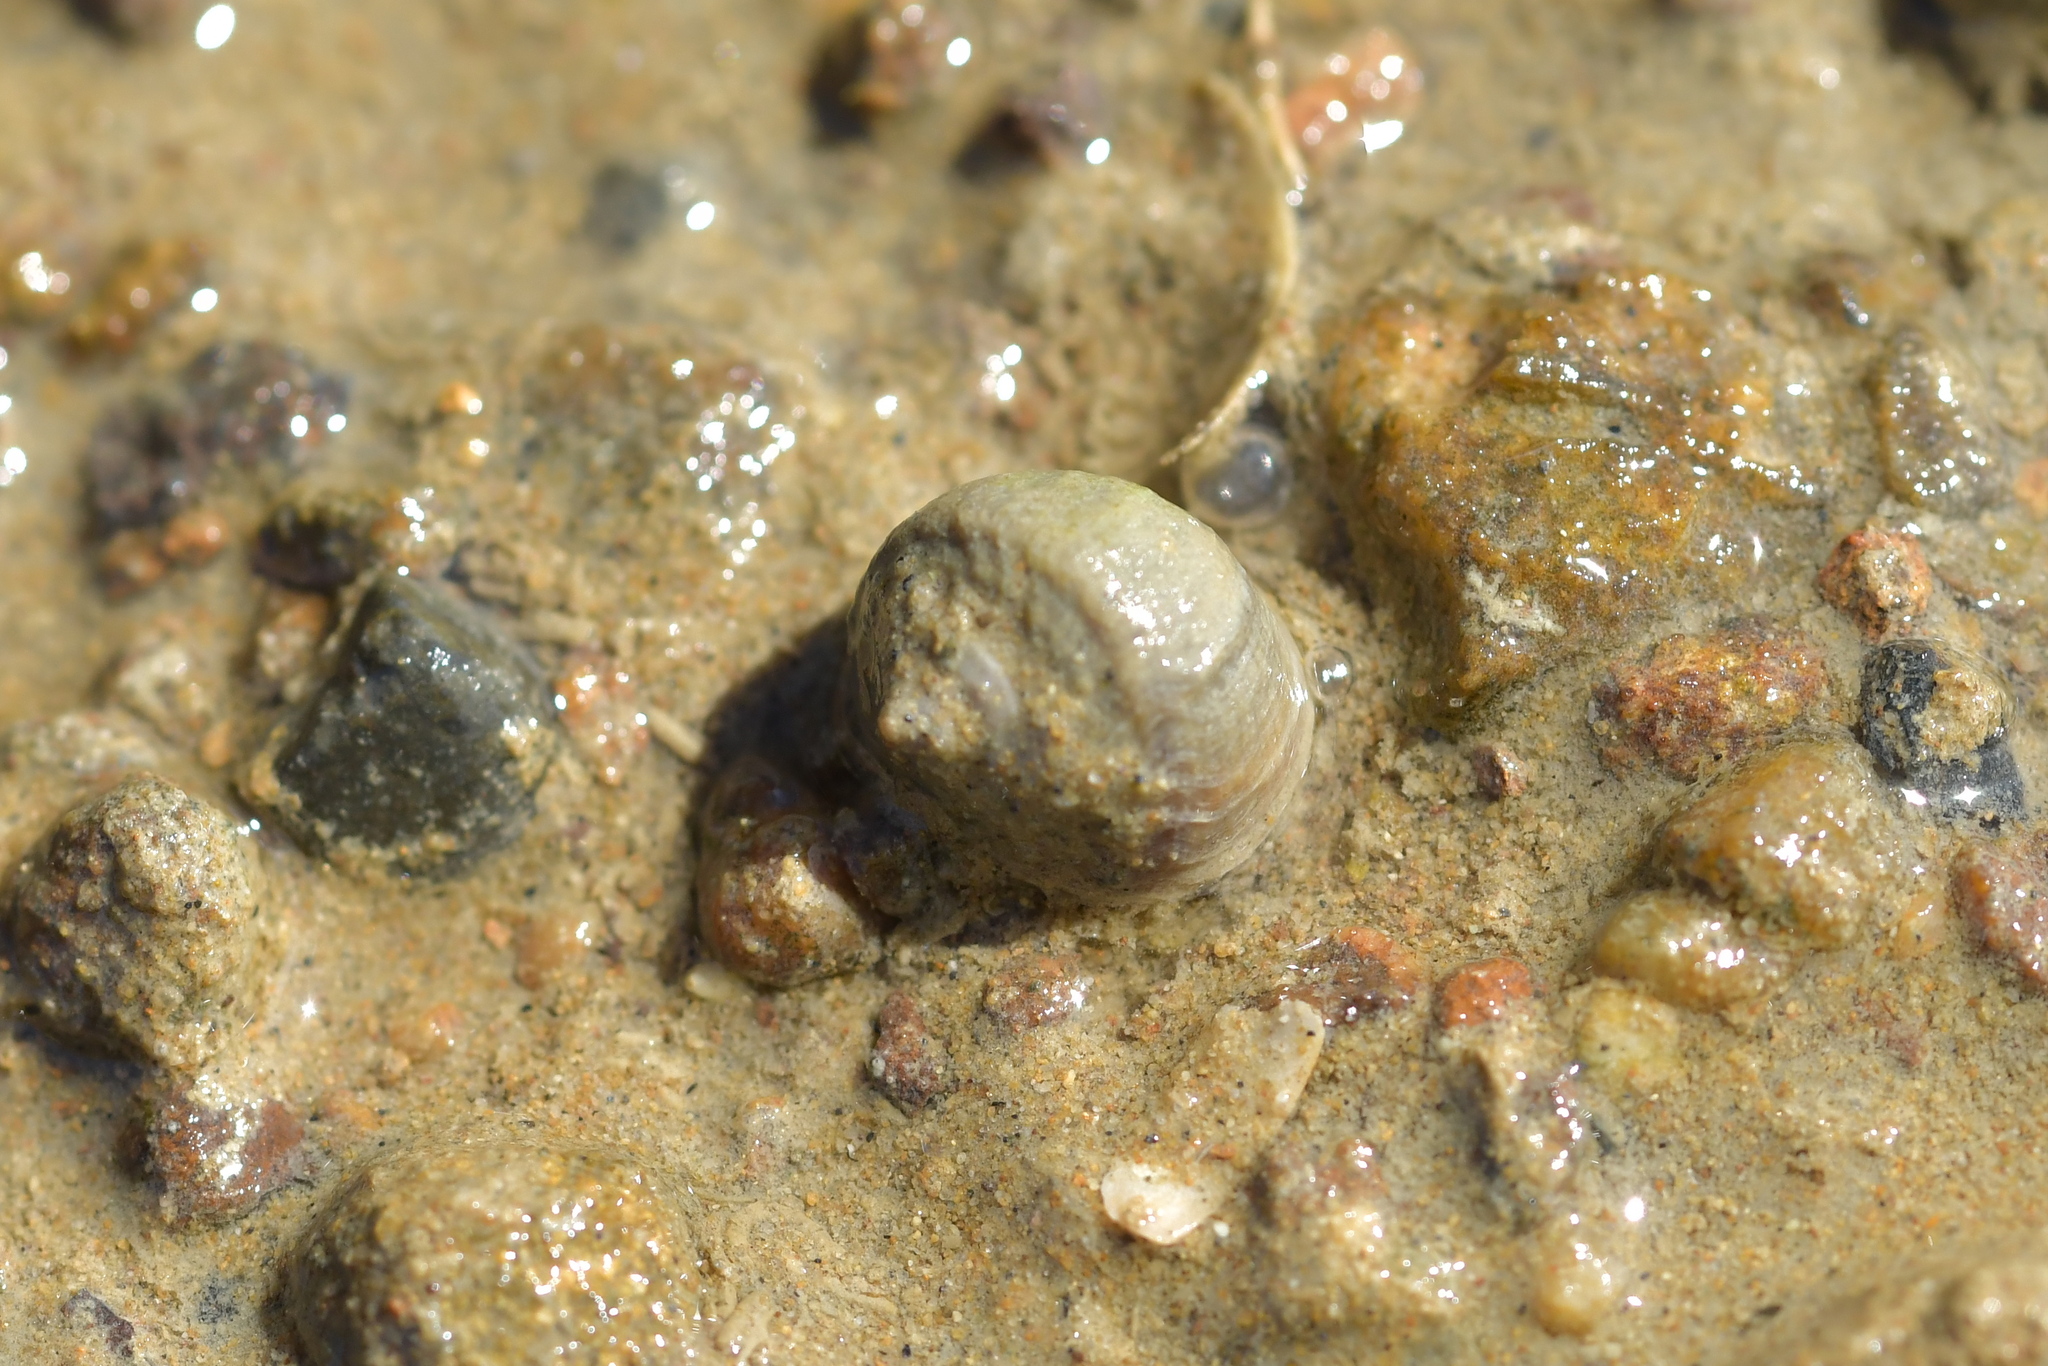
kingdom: Animalia
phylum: Mollusca
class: Gastropoda
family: Amphibolidae
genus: Amphibola
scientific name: Amphibola crenata
